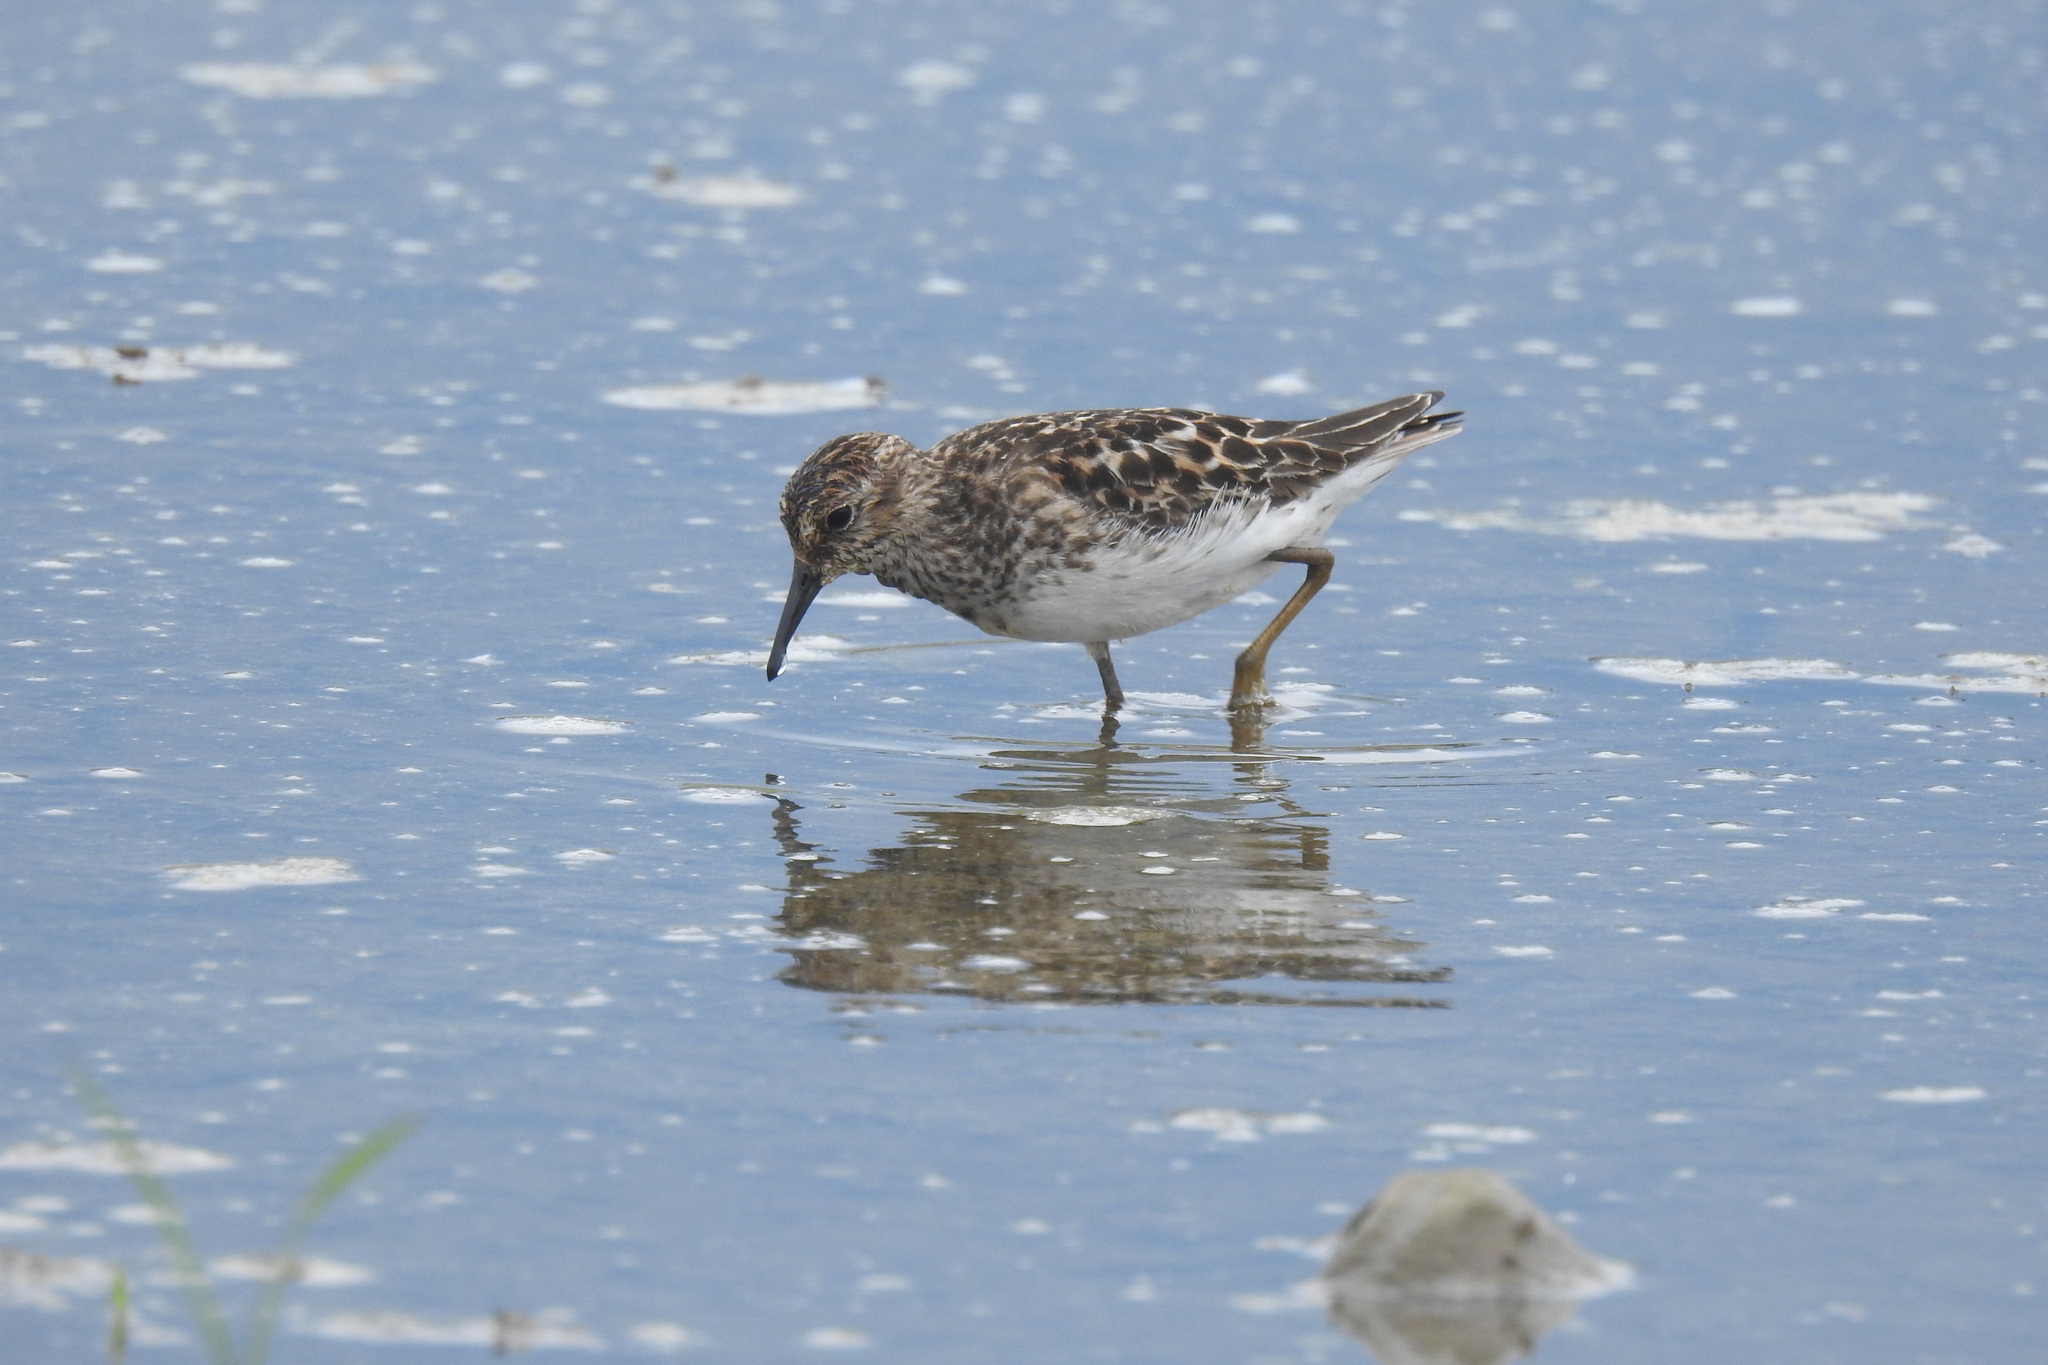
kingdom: Animalia
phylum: Chordata
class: Aves
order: Charadriiformes
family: Scolopacidae
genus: Calidris
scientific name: Calidris minutilla
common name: Least sandpiper
